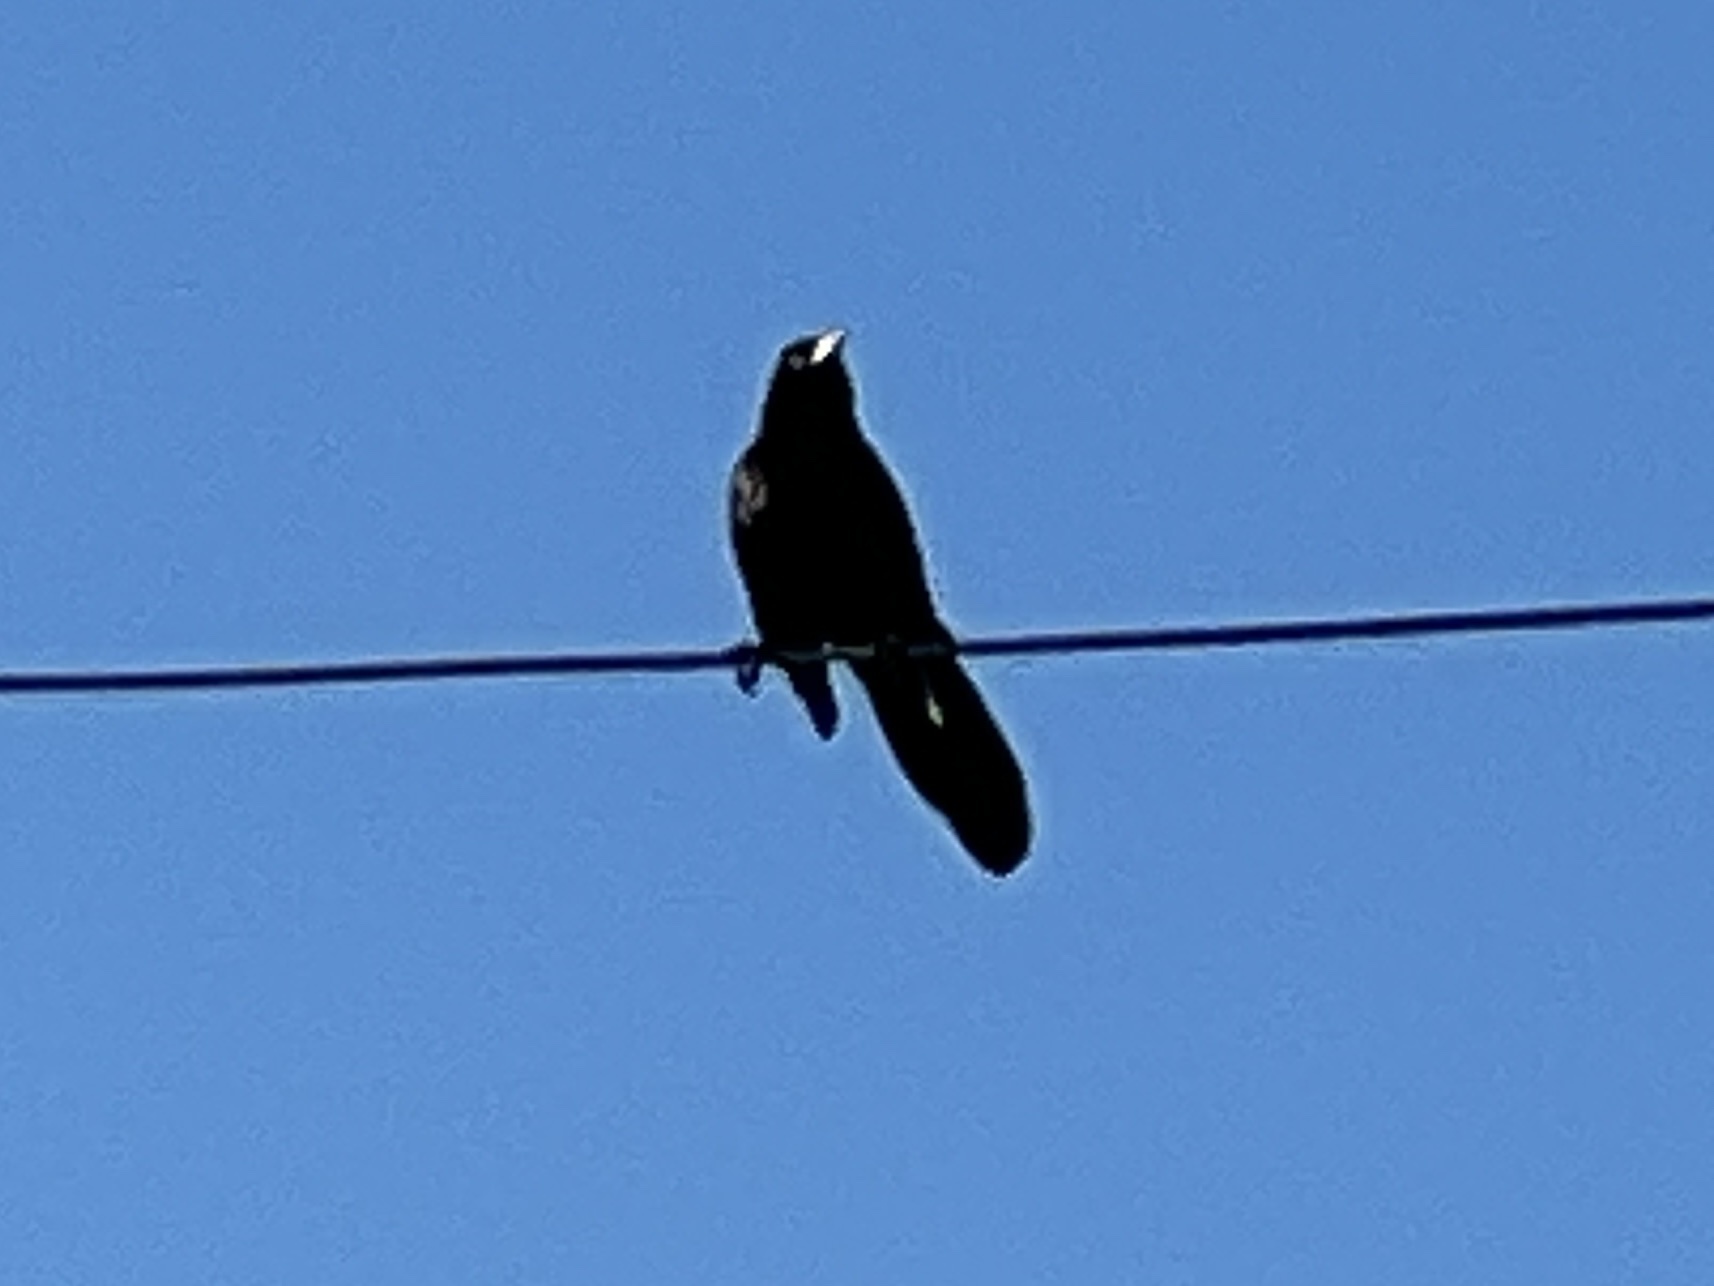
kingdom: Animalia
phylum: Chordata
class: Aves
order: Passeriformes
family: Icteridae
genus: Quiscalus
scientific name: Quiscalus mexicanus
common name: Great-tailed grackle
